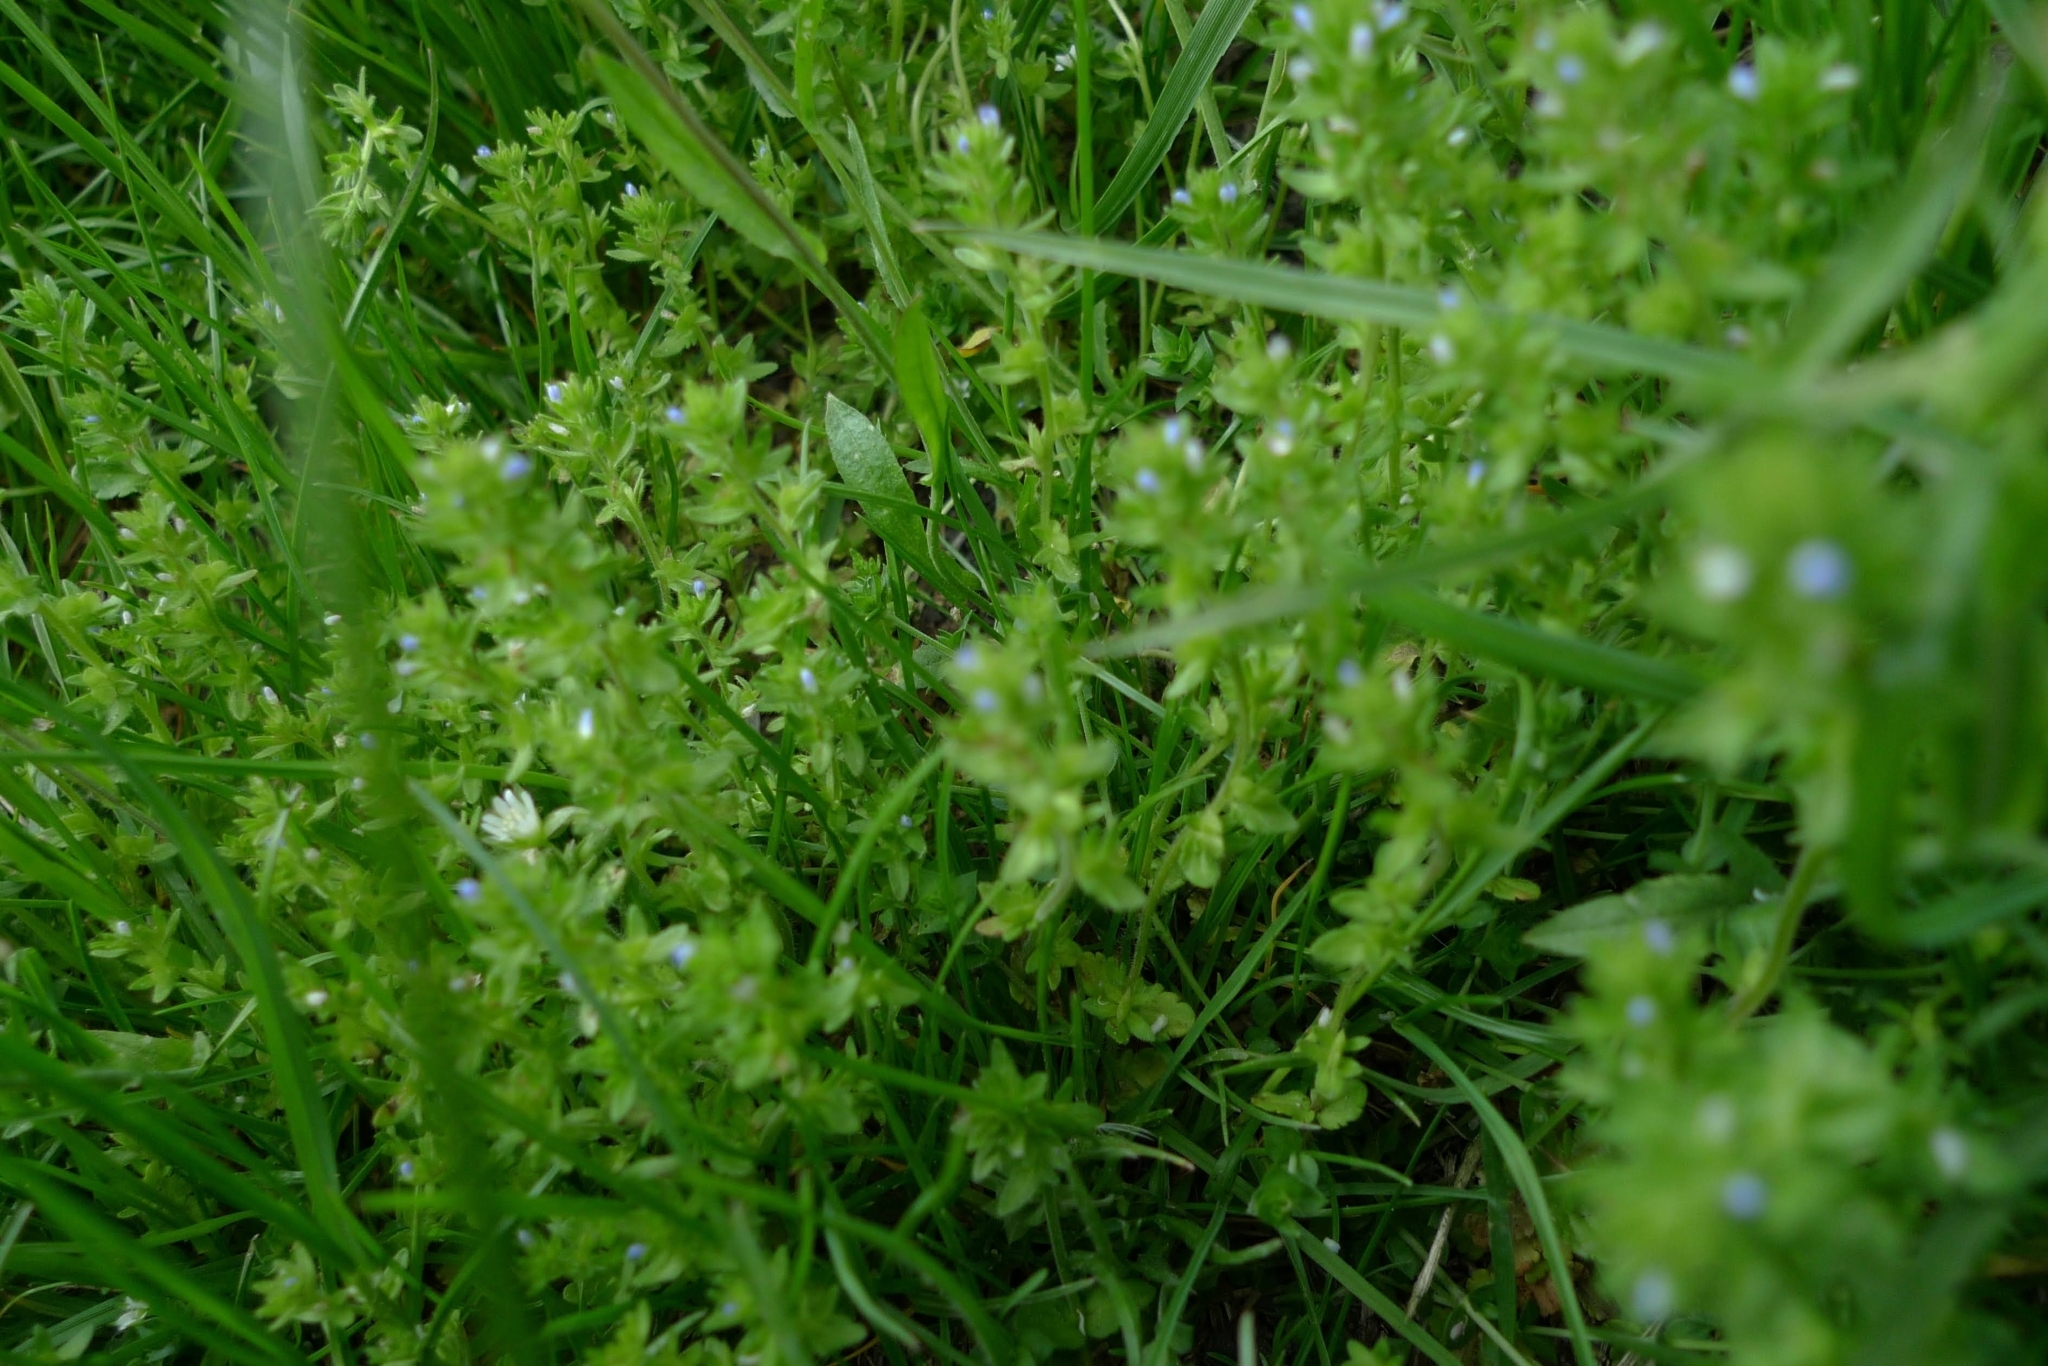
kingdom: Plantae
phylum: Tracheophyta
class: Magnoliopsida
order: Lamiales
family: Plantaginaceae
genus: Veronica
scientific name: Veronica arvensis
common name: Corn speedwell
